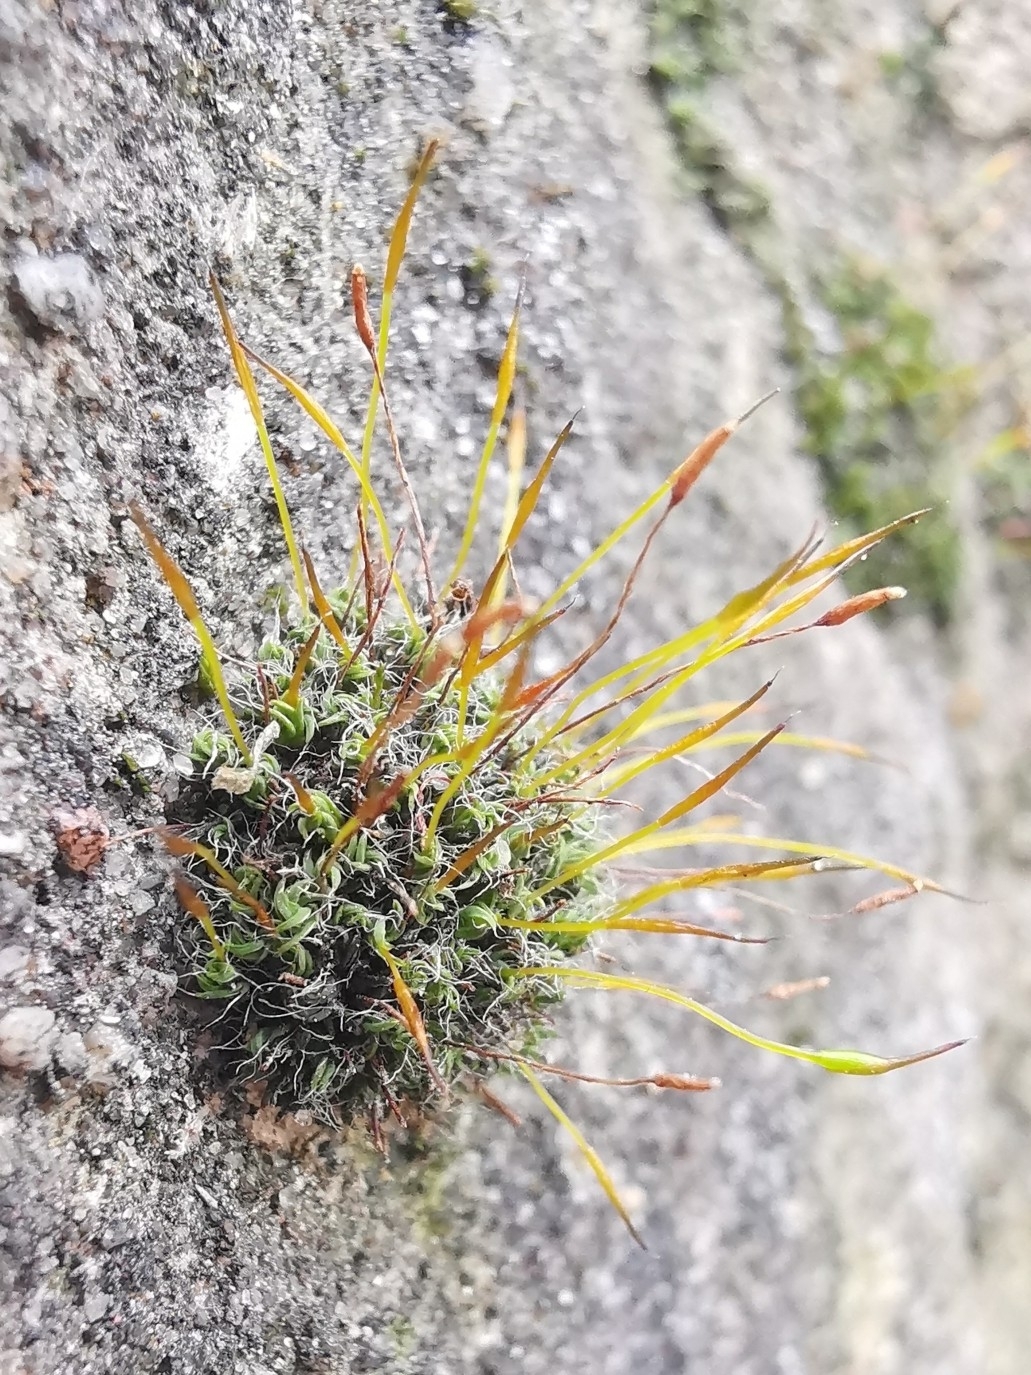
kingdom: Plantae
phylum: Bryophyta
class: Bryopsida
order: Pottiales
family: Pottiaceae
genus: Tortula
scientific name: Tortula muralis
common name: Wall screw-moss
